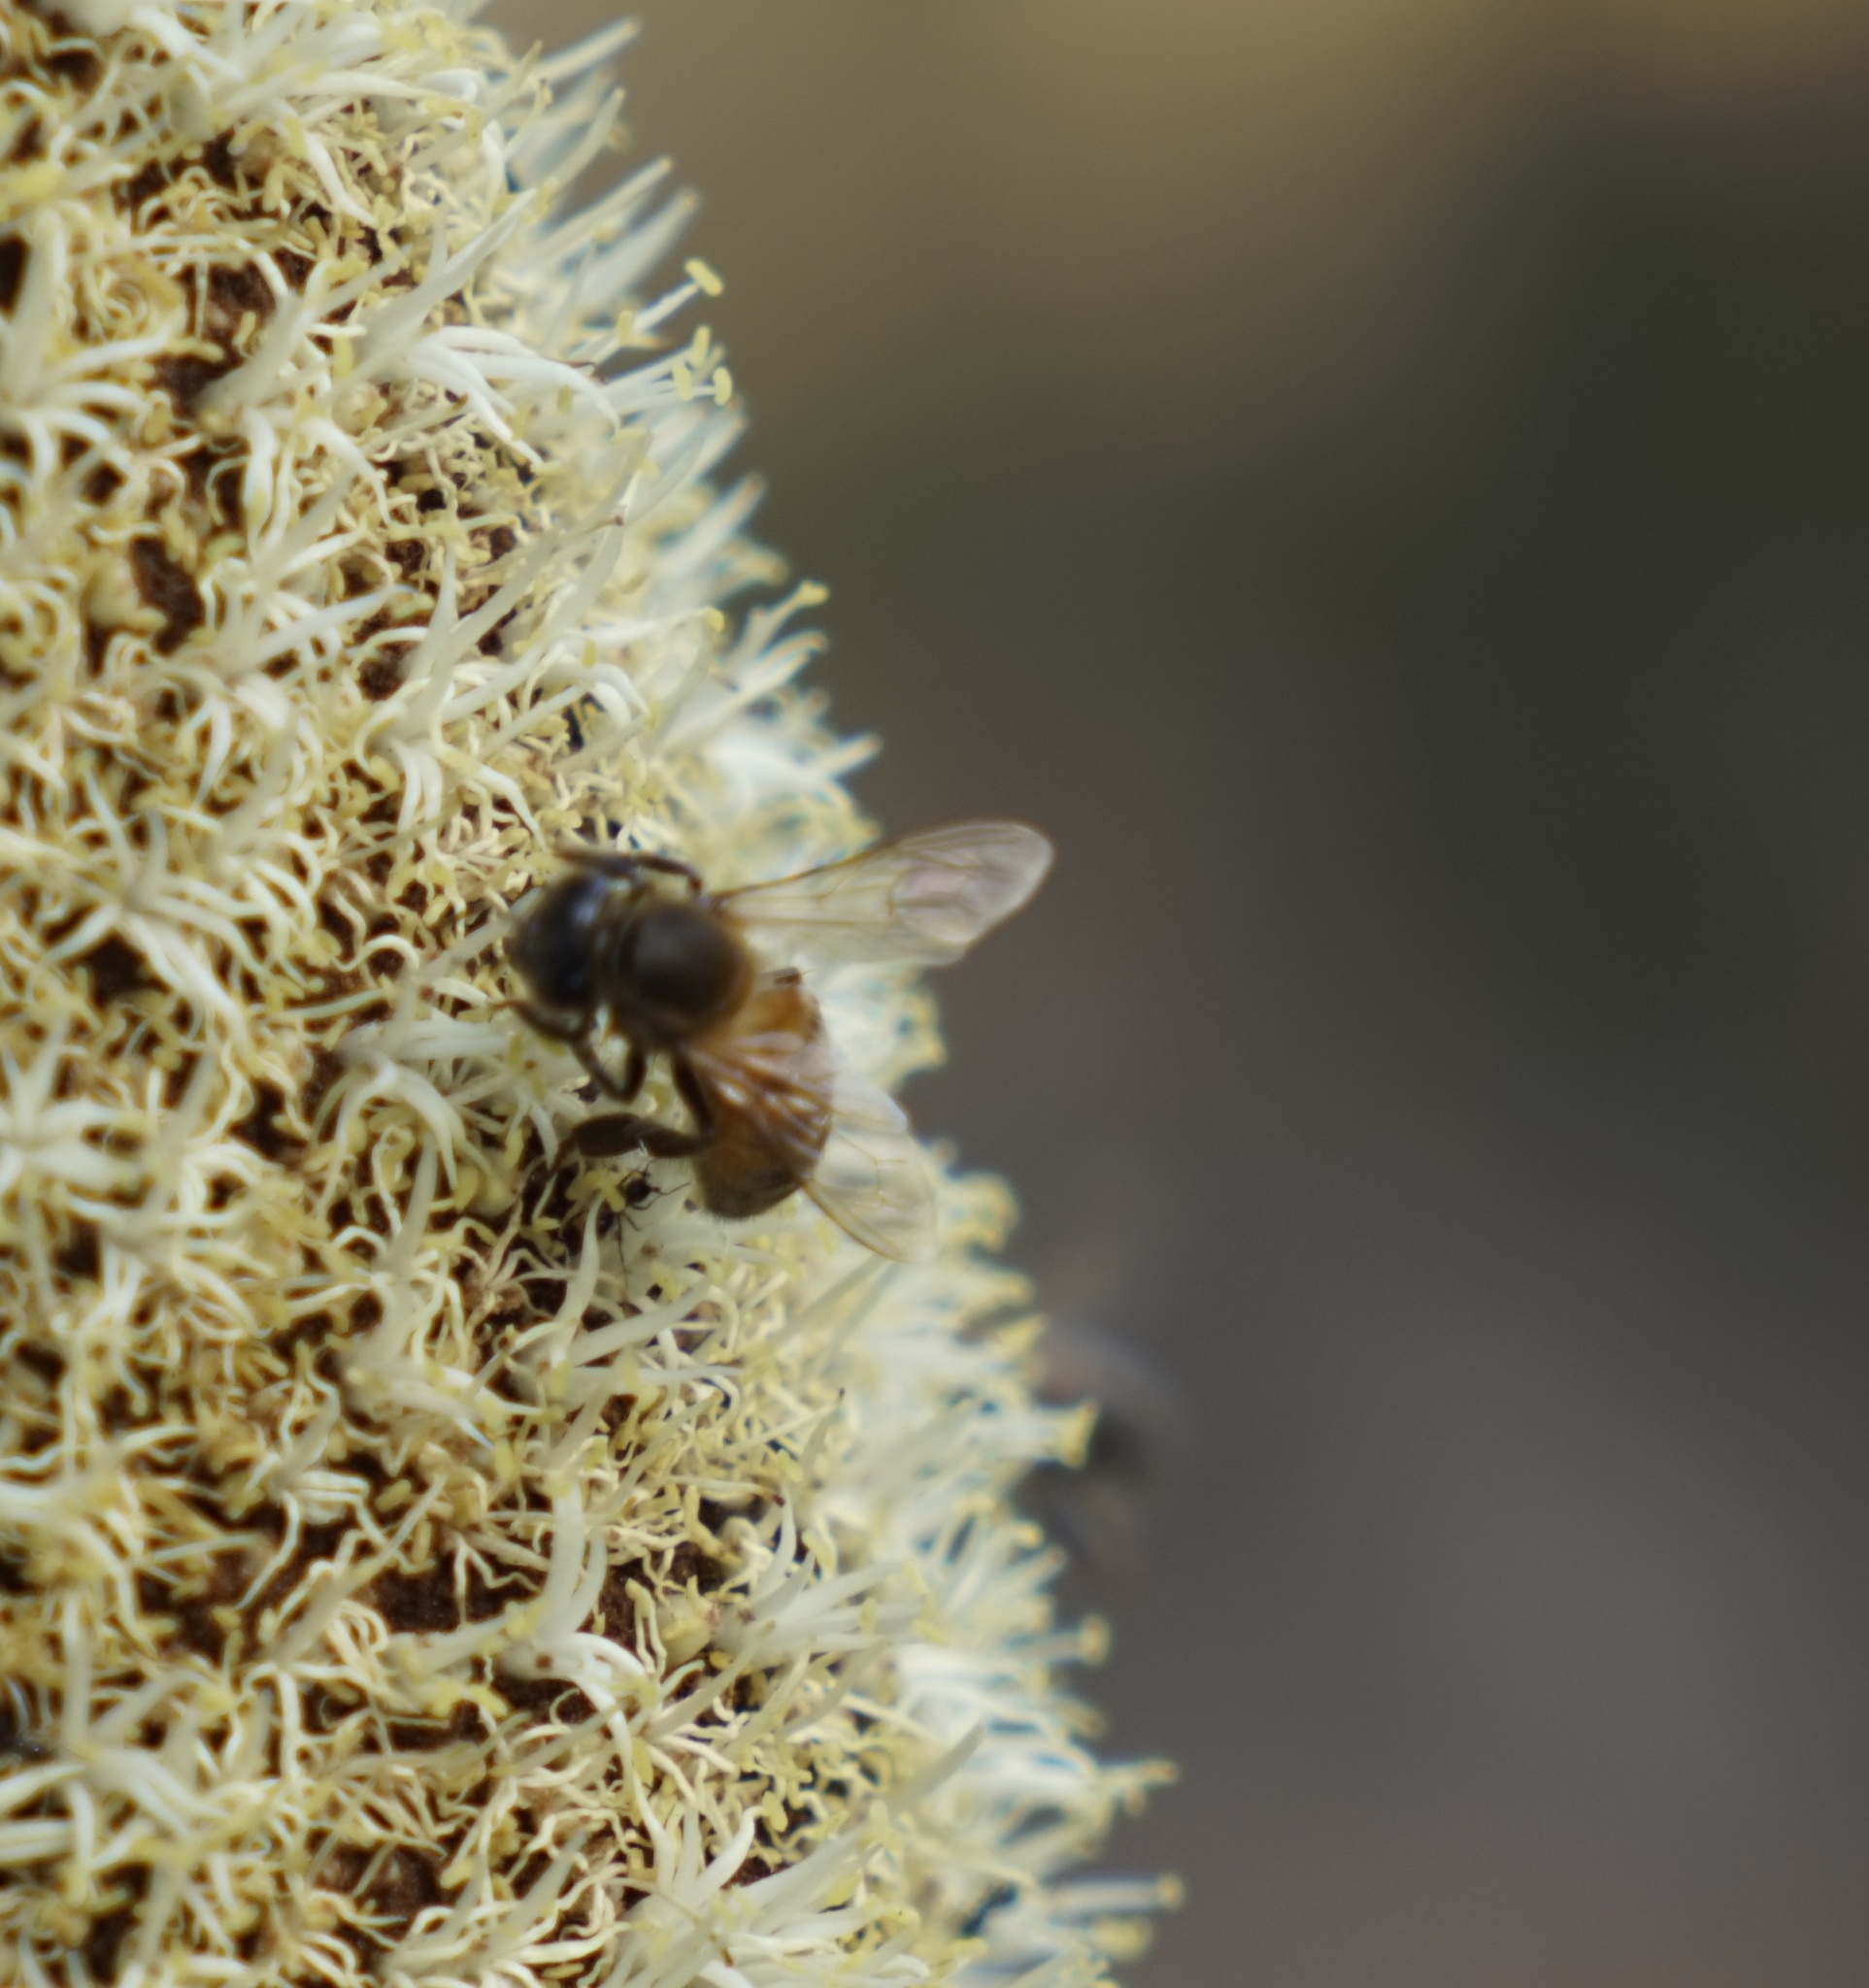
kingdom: Animalia
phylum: Arthropoda
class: Insecta
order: Hymenoptera
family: Apidae
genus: Apis
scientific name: Apis mellifera
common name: Honey bee
